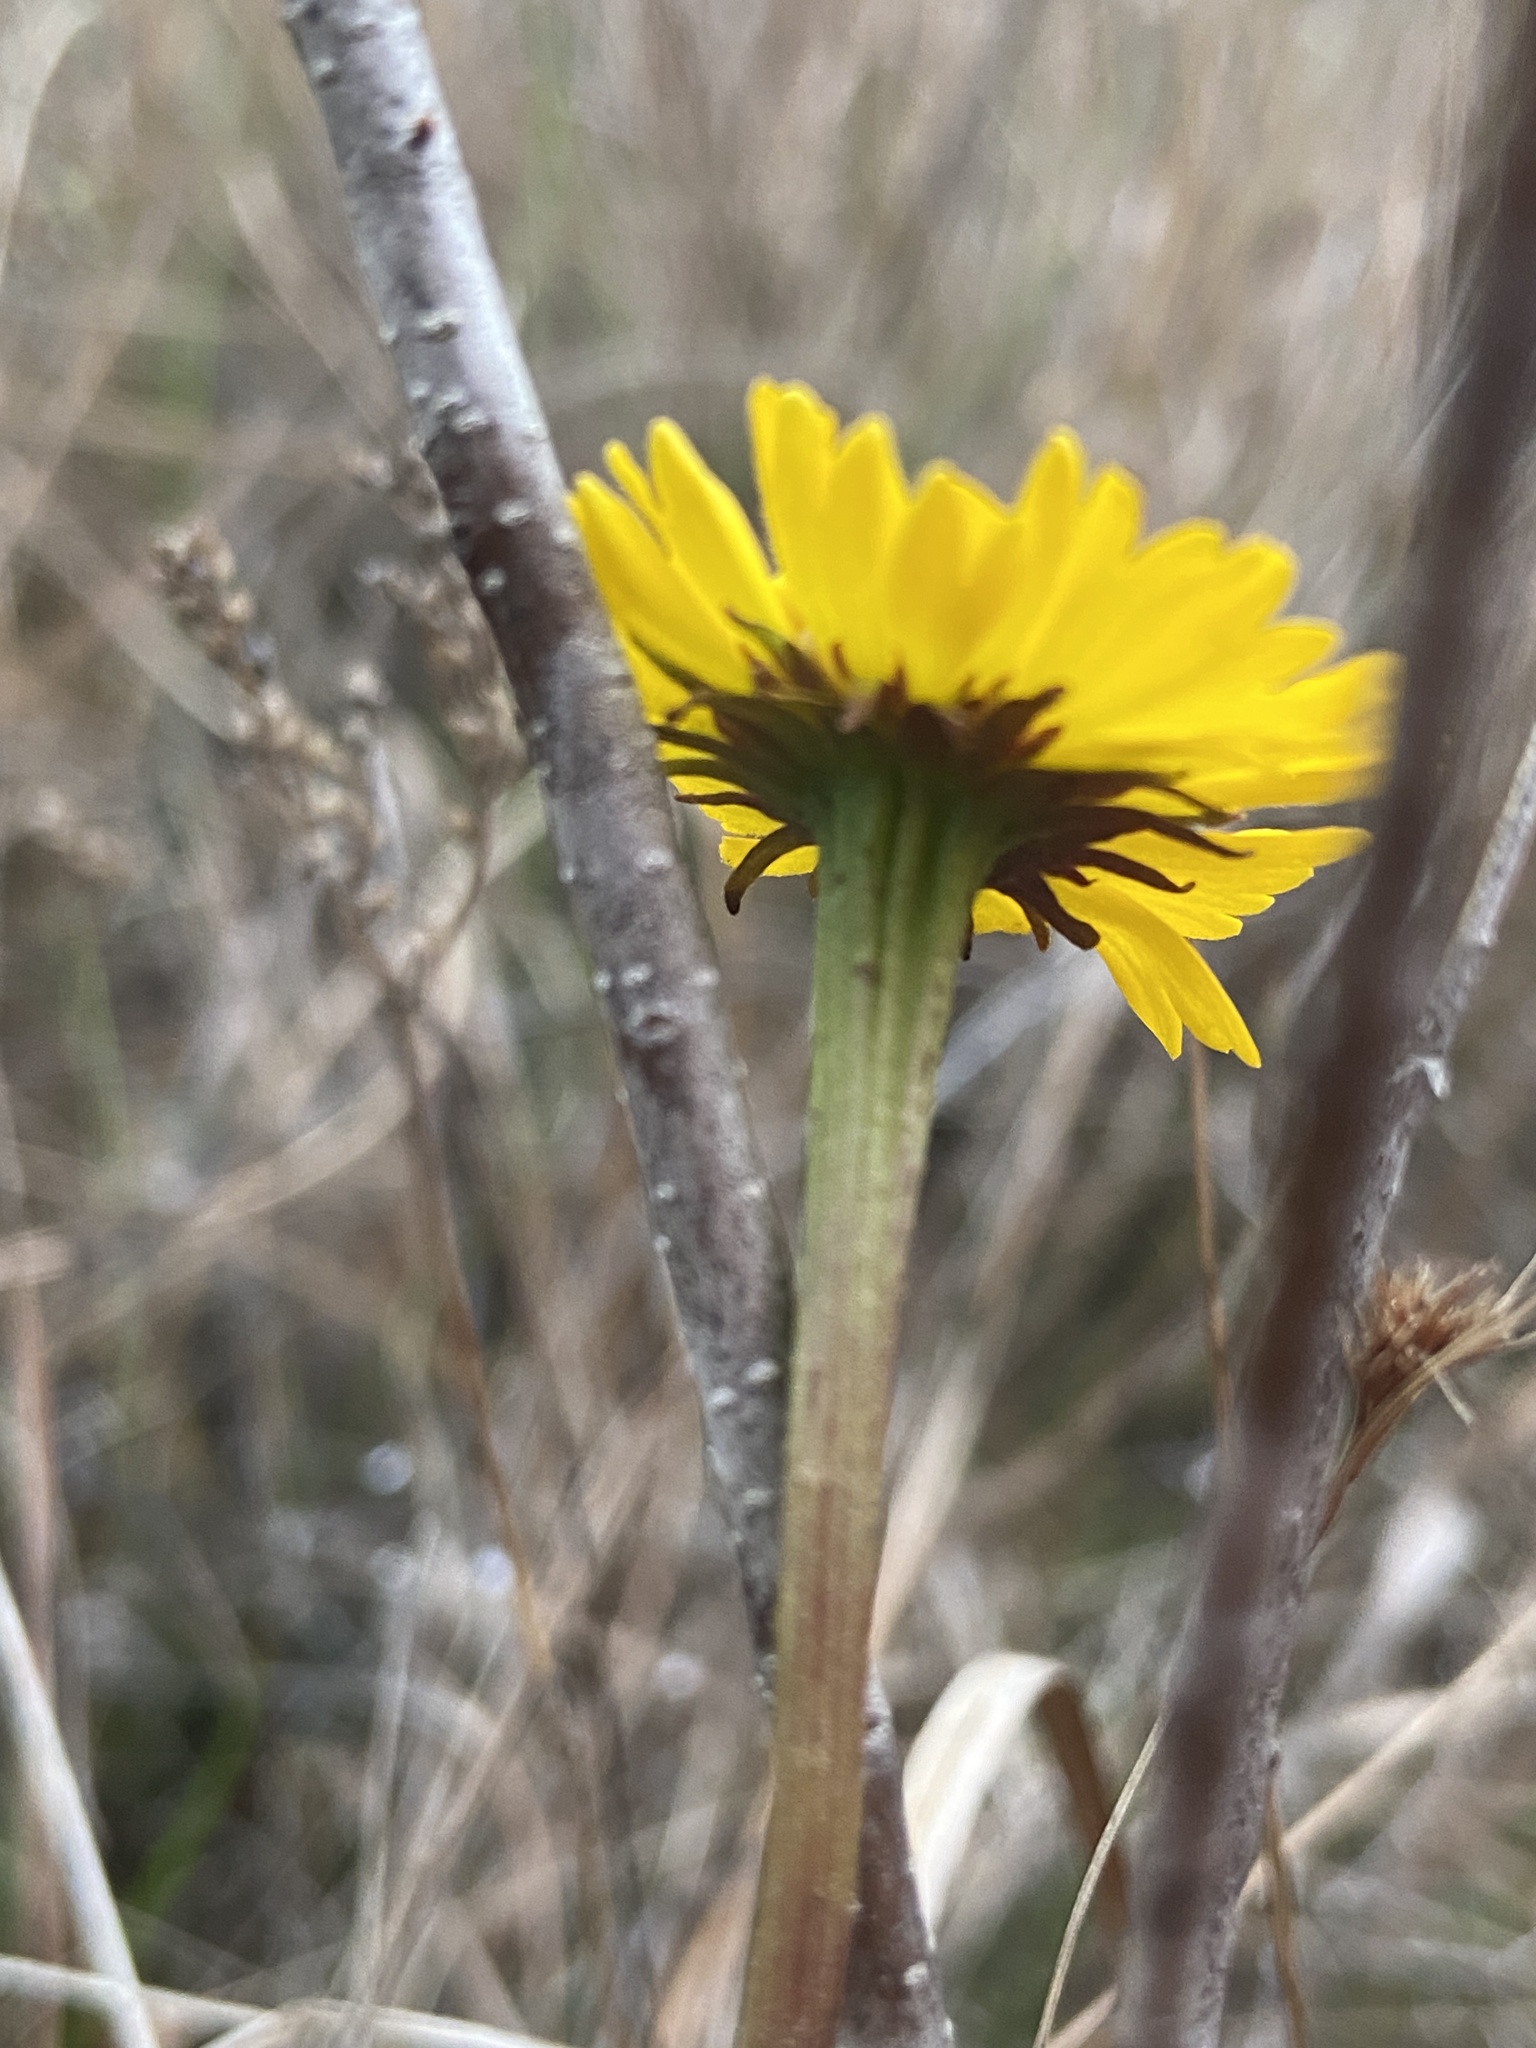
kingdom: Plantae
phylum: Tracheophyta
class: Magnoliopsida
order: Asterales
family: Asteraceae
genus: Helenium
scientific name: Helenium vernale
